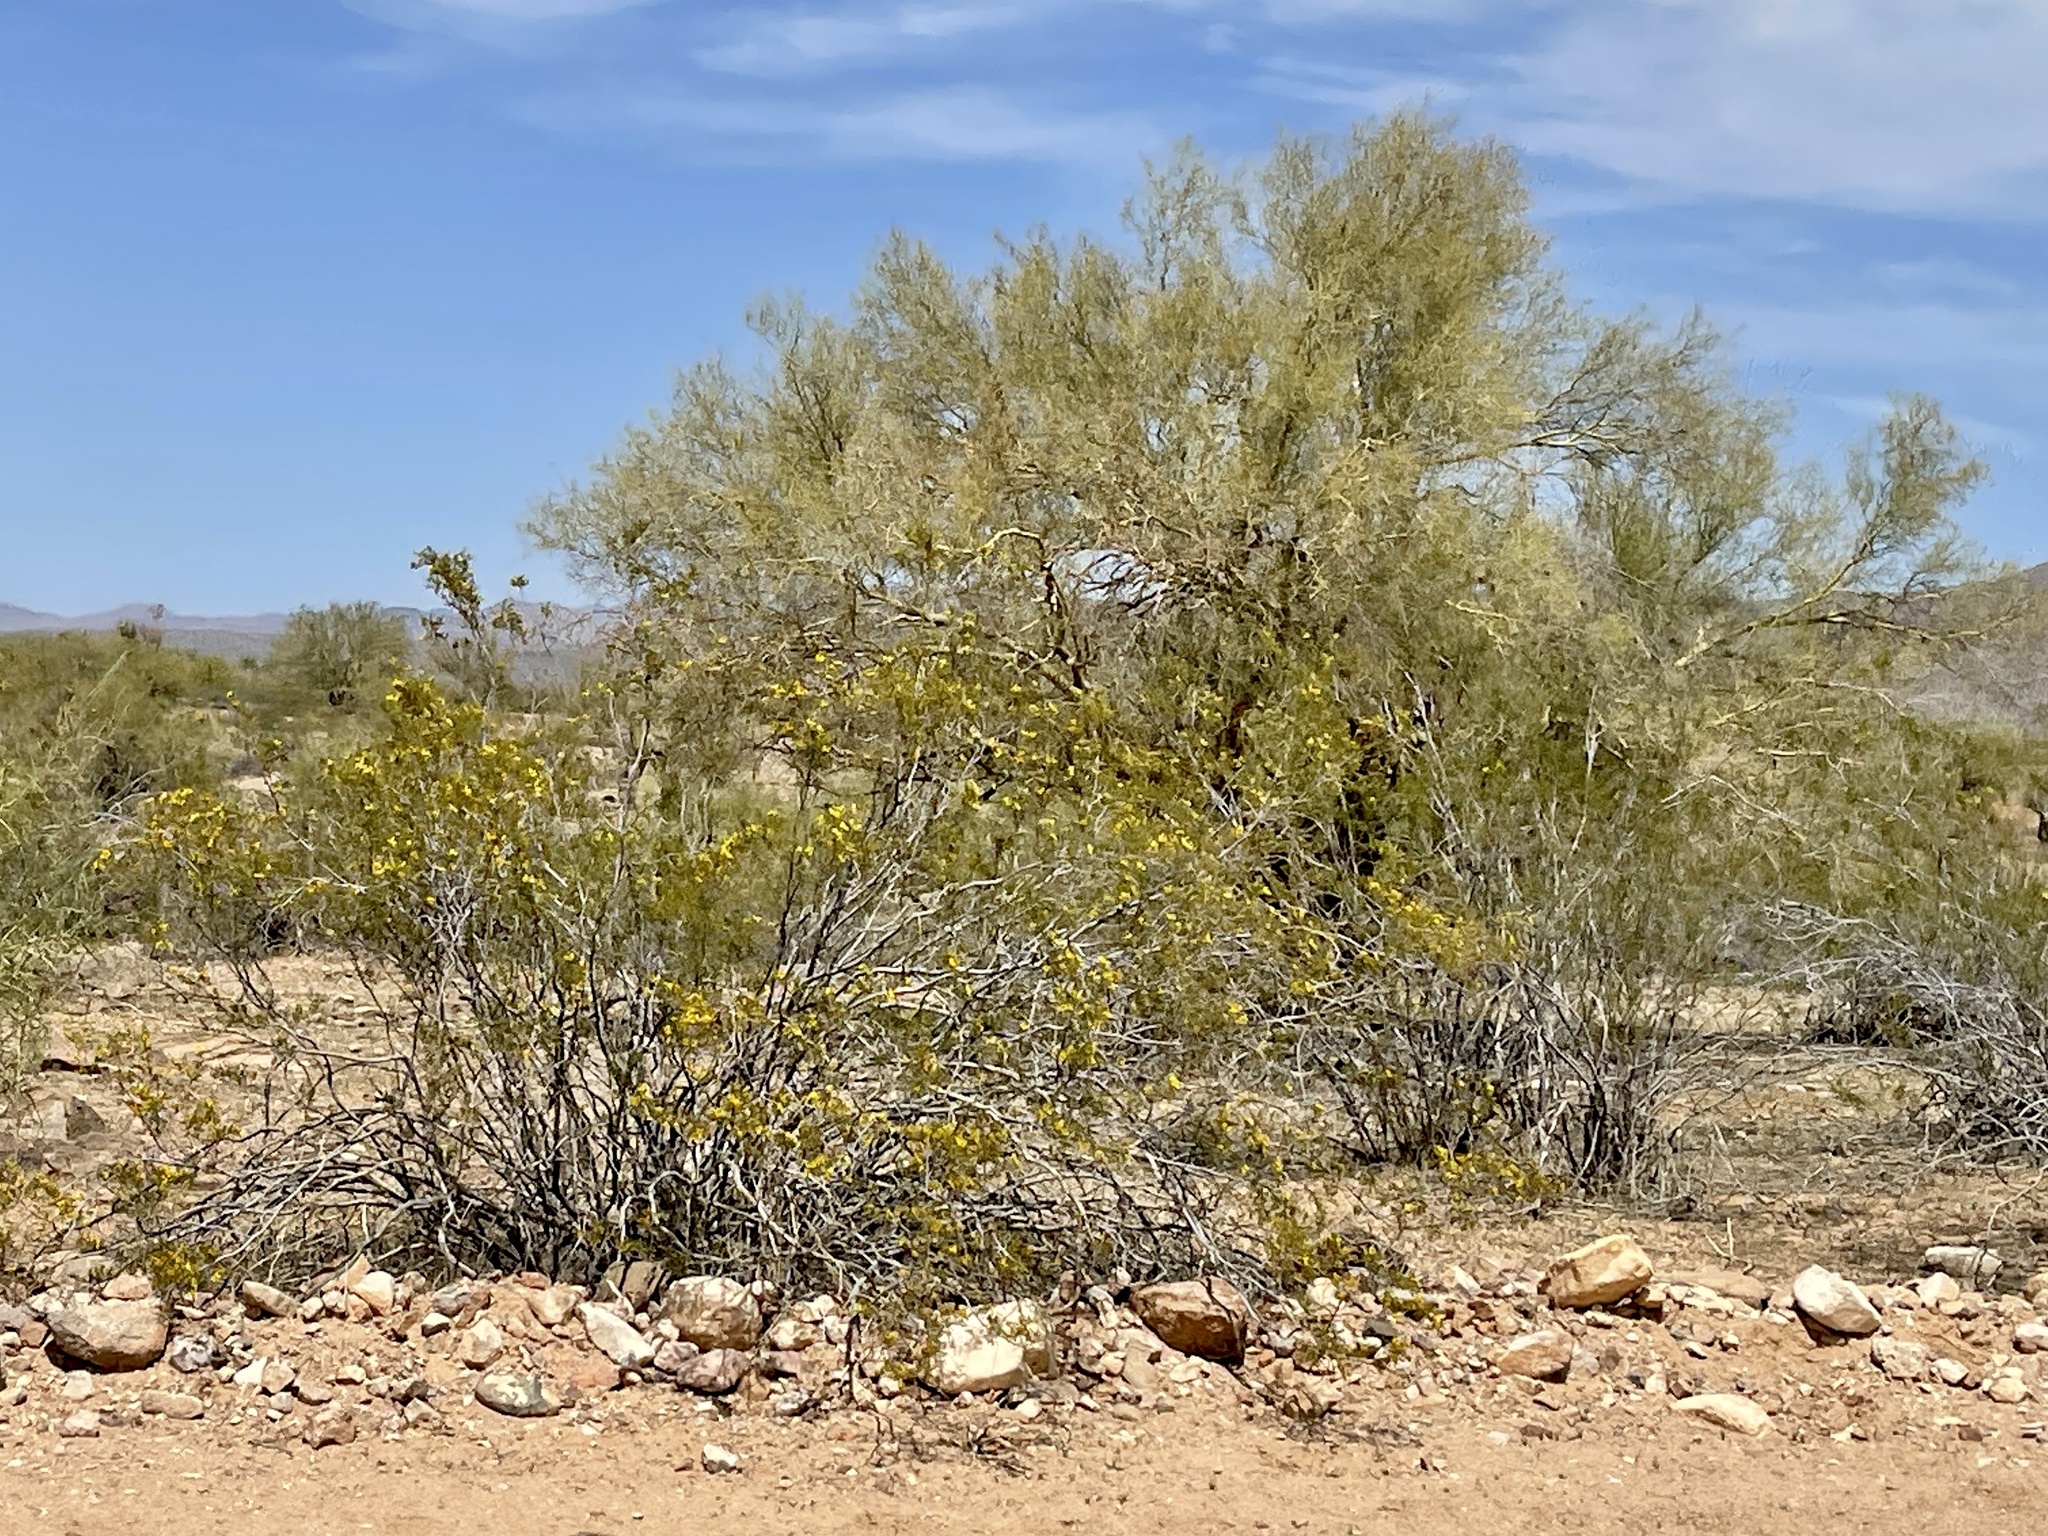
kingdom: Plantae
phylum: Tracheophyta
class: Magnoliopsida
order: Zygophyllales
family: Zygophyllaceae
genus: Larrea
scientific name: Larrea tridentata
